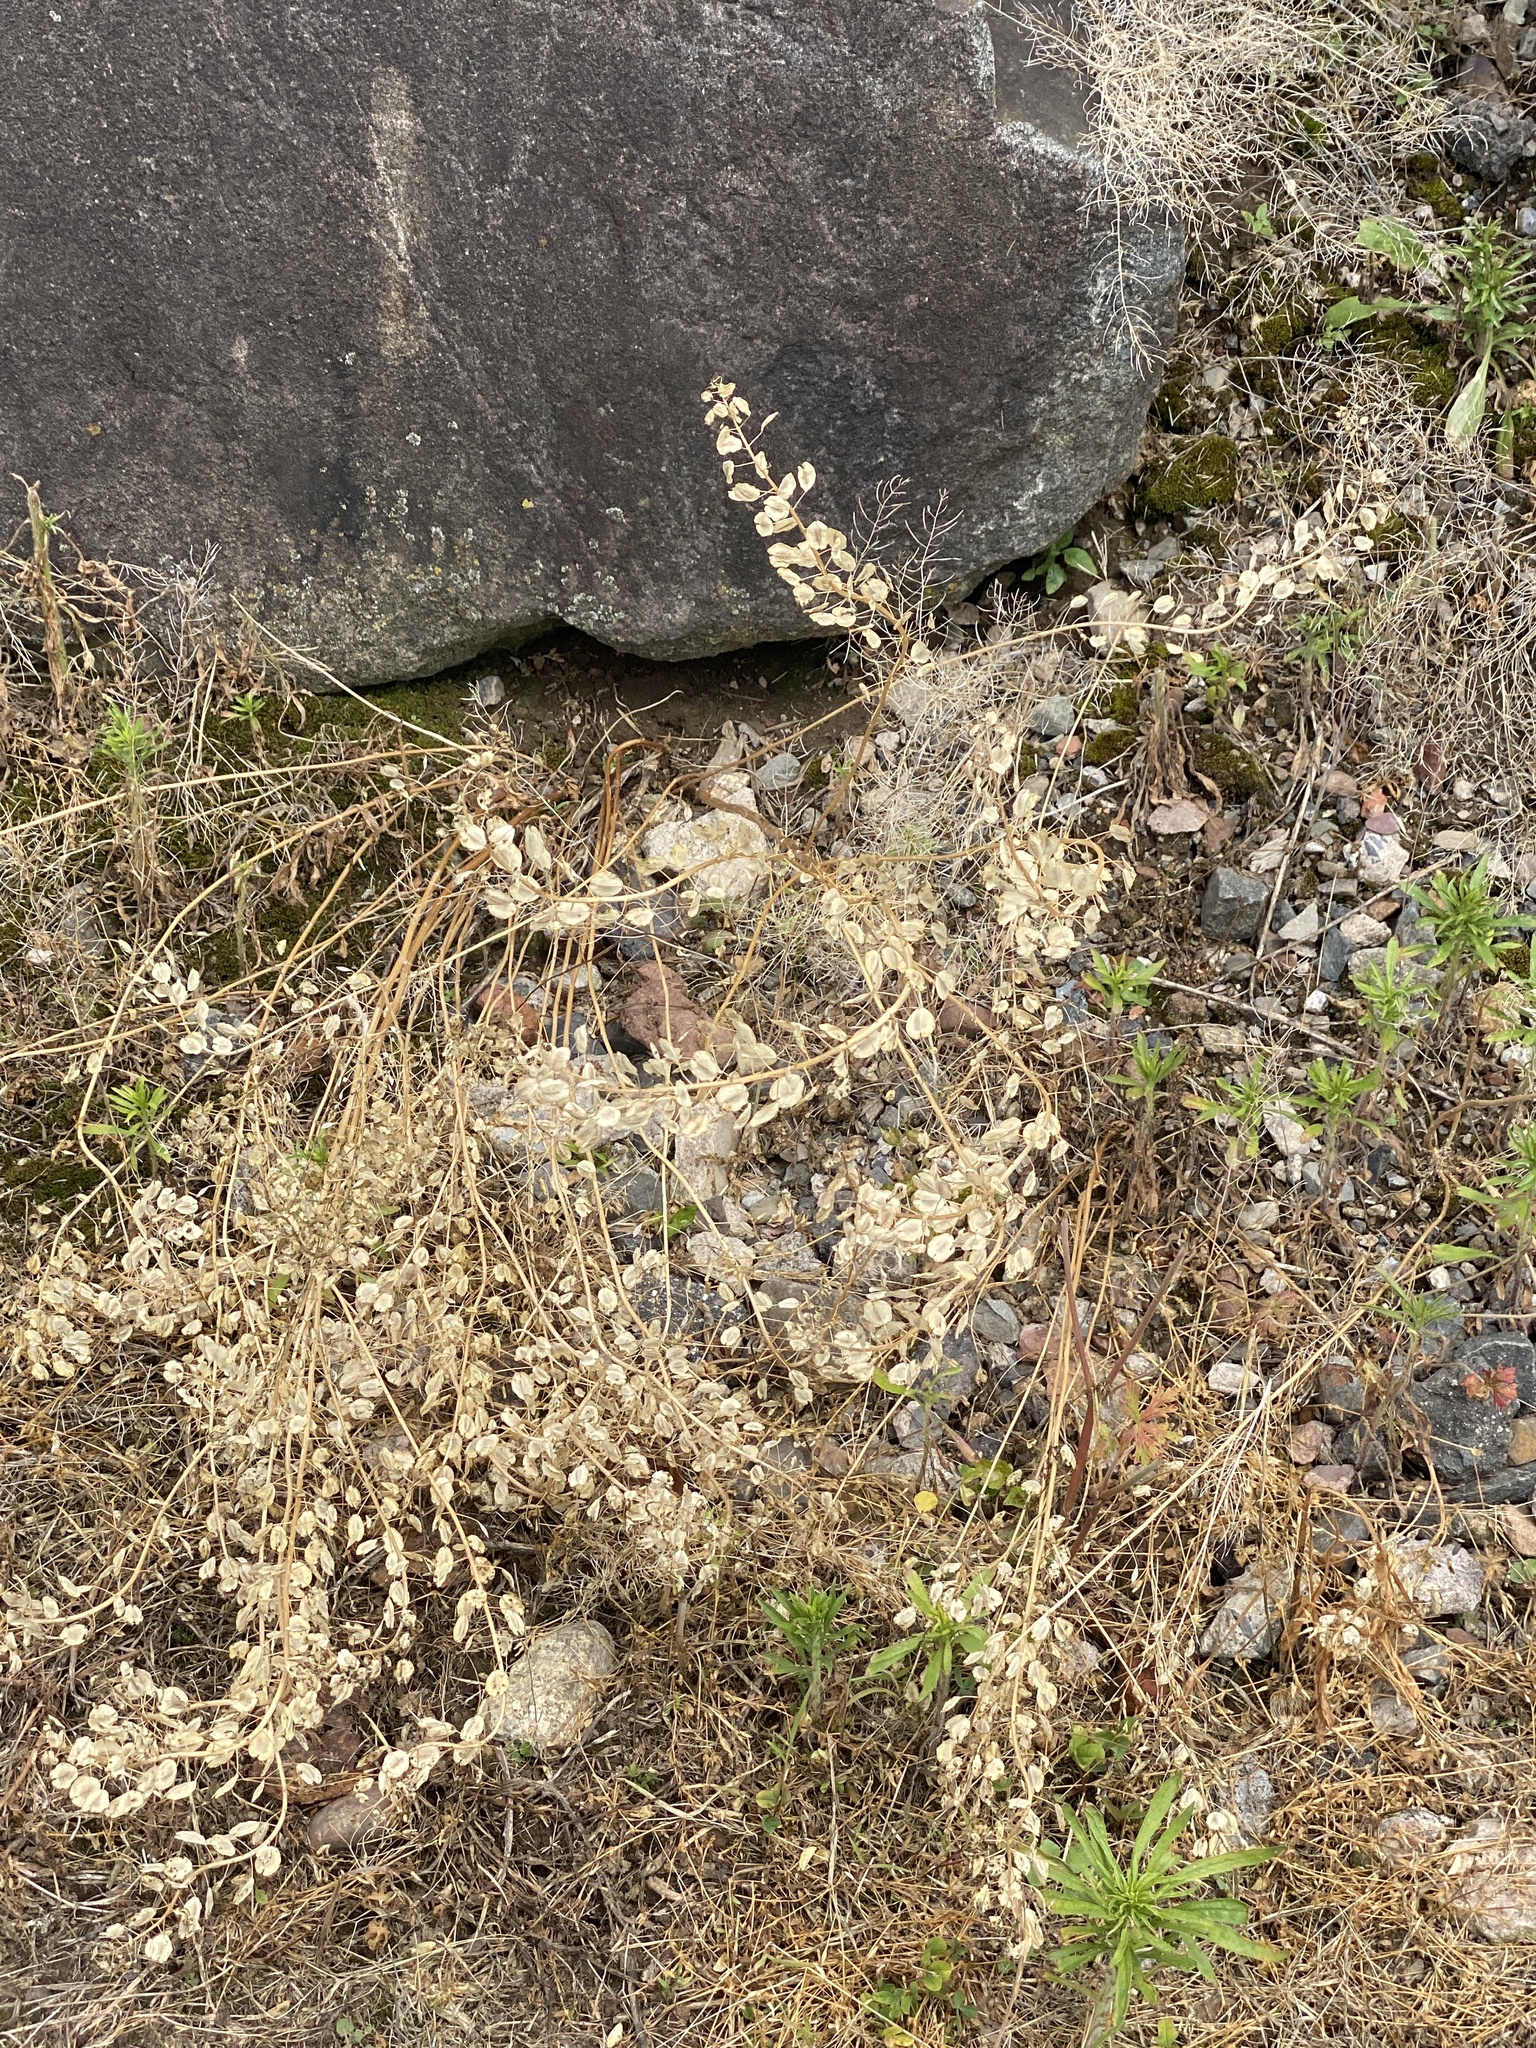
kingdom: Plantae
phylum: Tracheophyta
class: Magnoliopsida
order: Brassicales
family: Brassicaceae
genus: Thlaspi
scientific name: Thlaspi arvense
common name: Field pennycress
